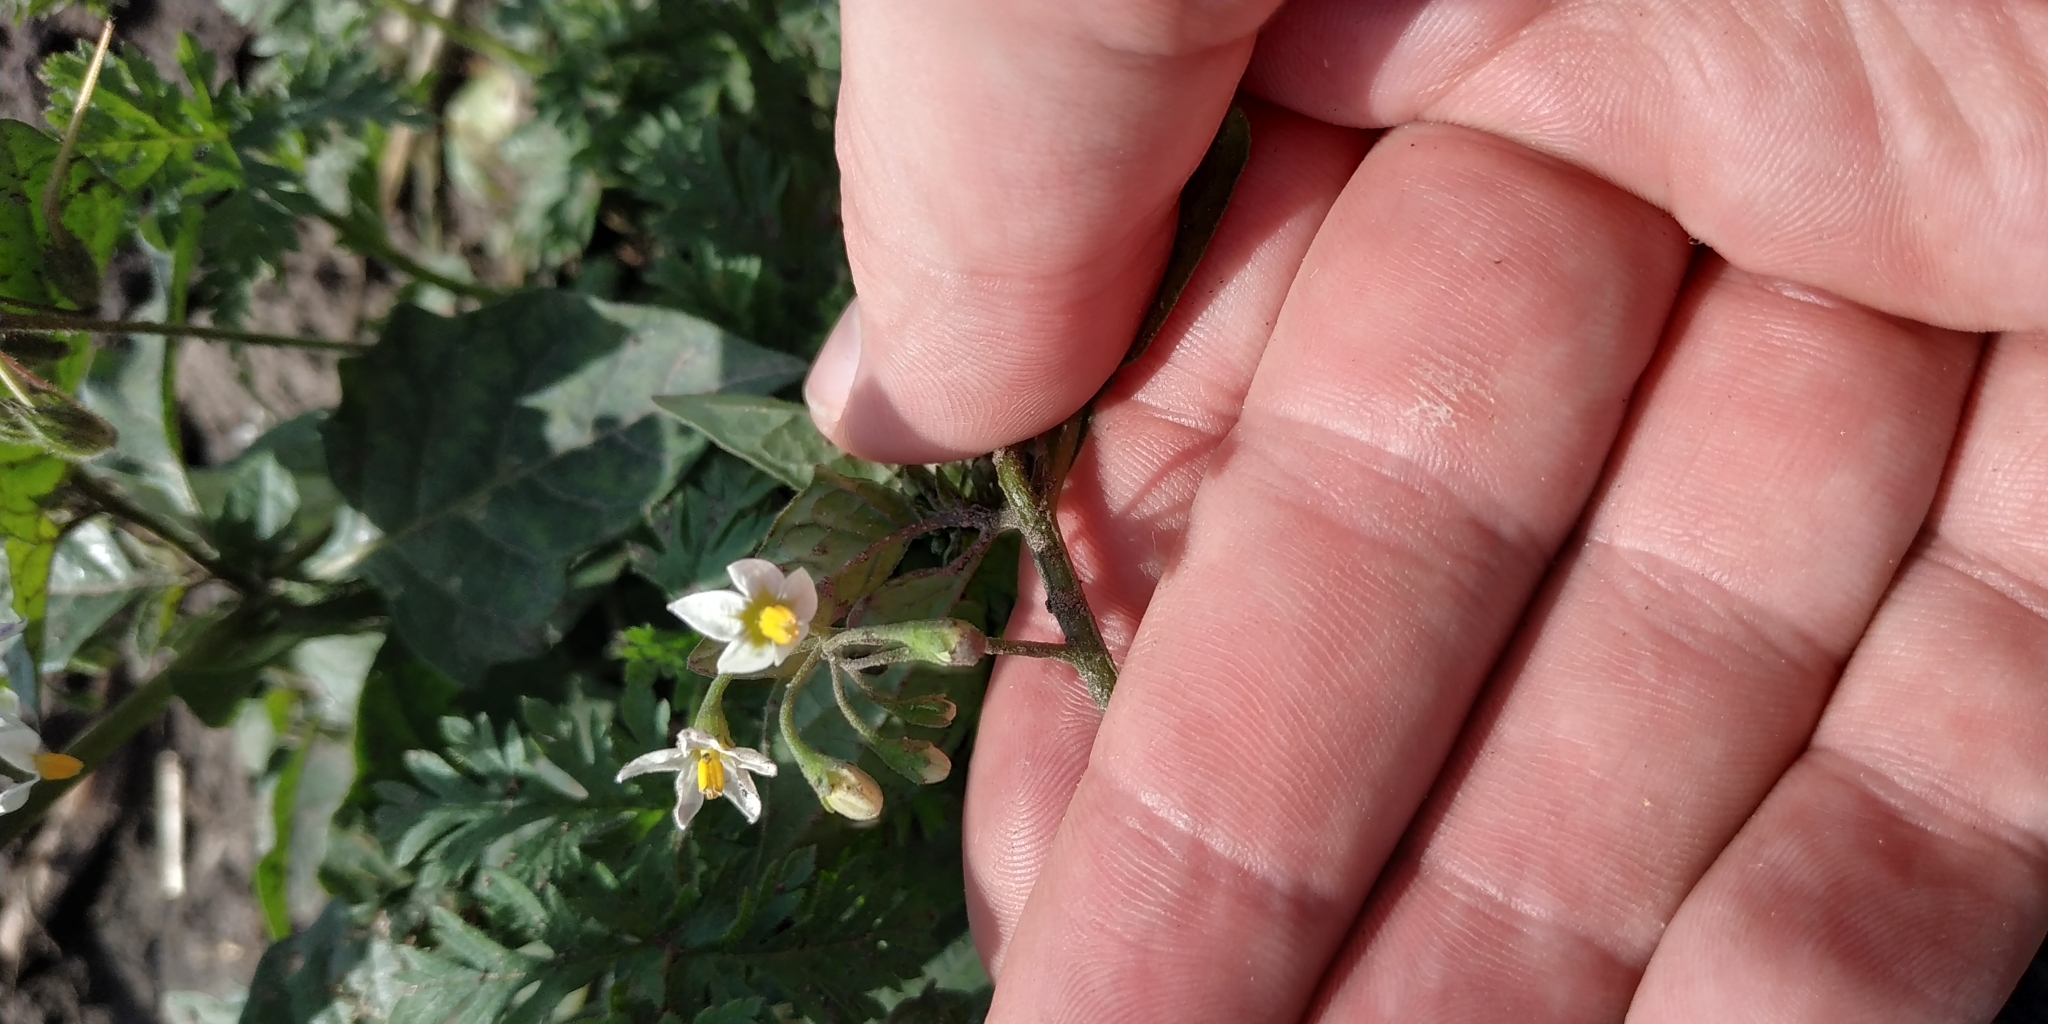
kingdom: Plantae
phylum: Tracheophyta
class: Magnoliopsida
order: Solanales
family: Solanaceae
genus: Solanum
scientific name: Solanum nigrum
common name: Black nightshade
